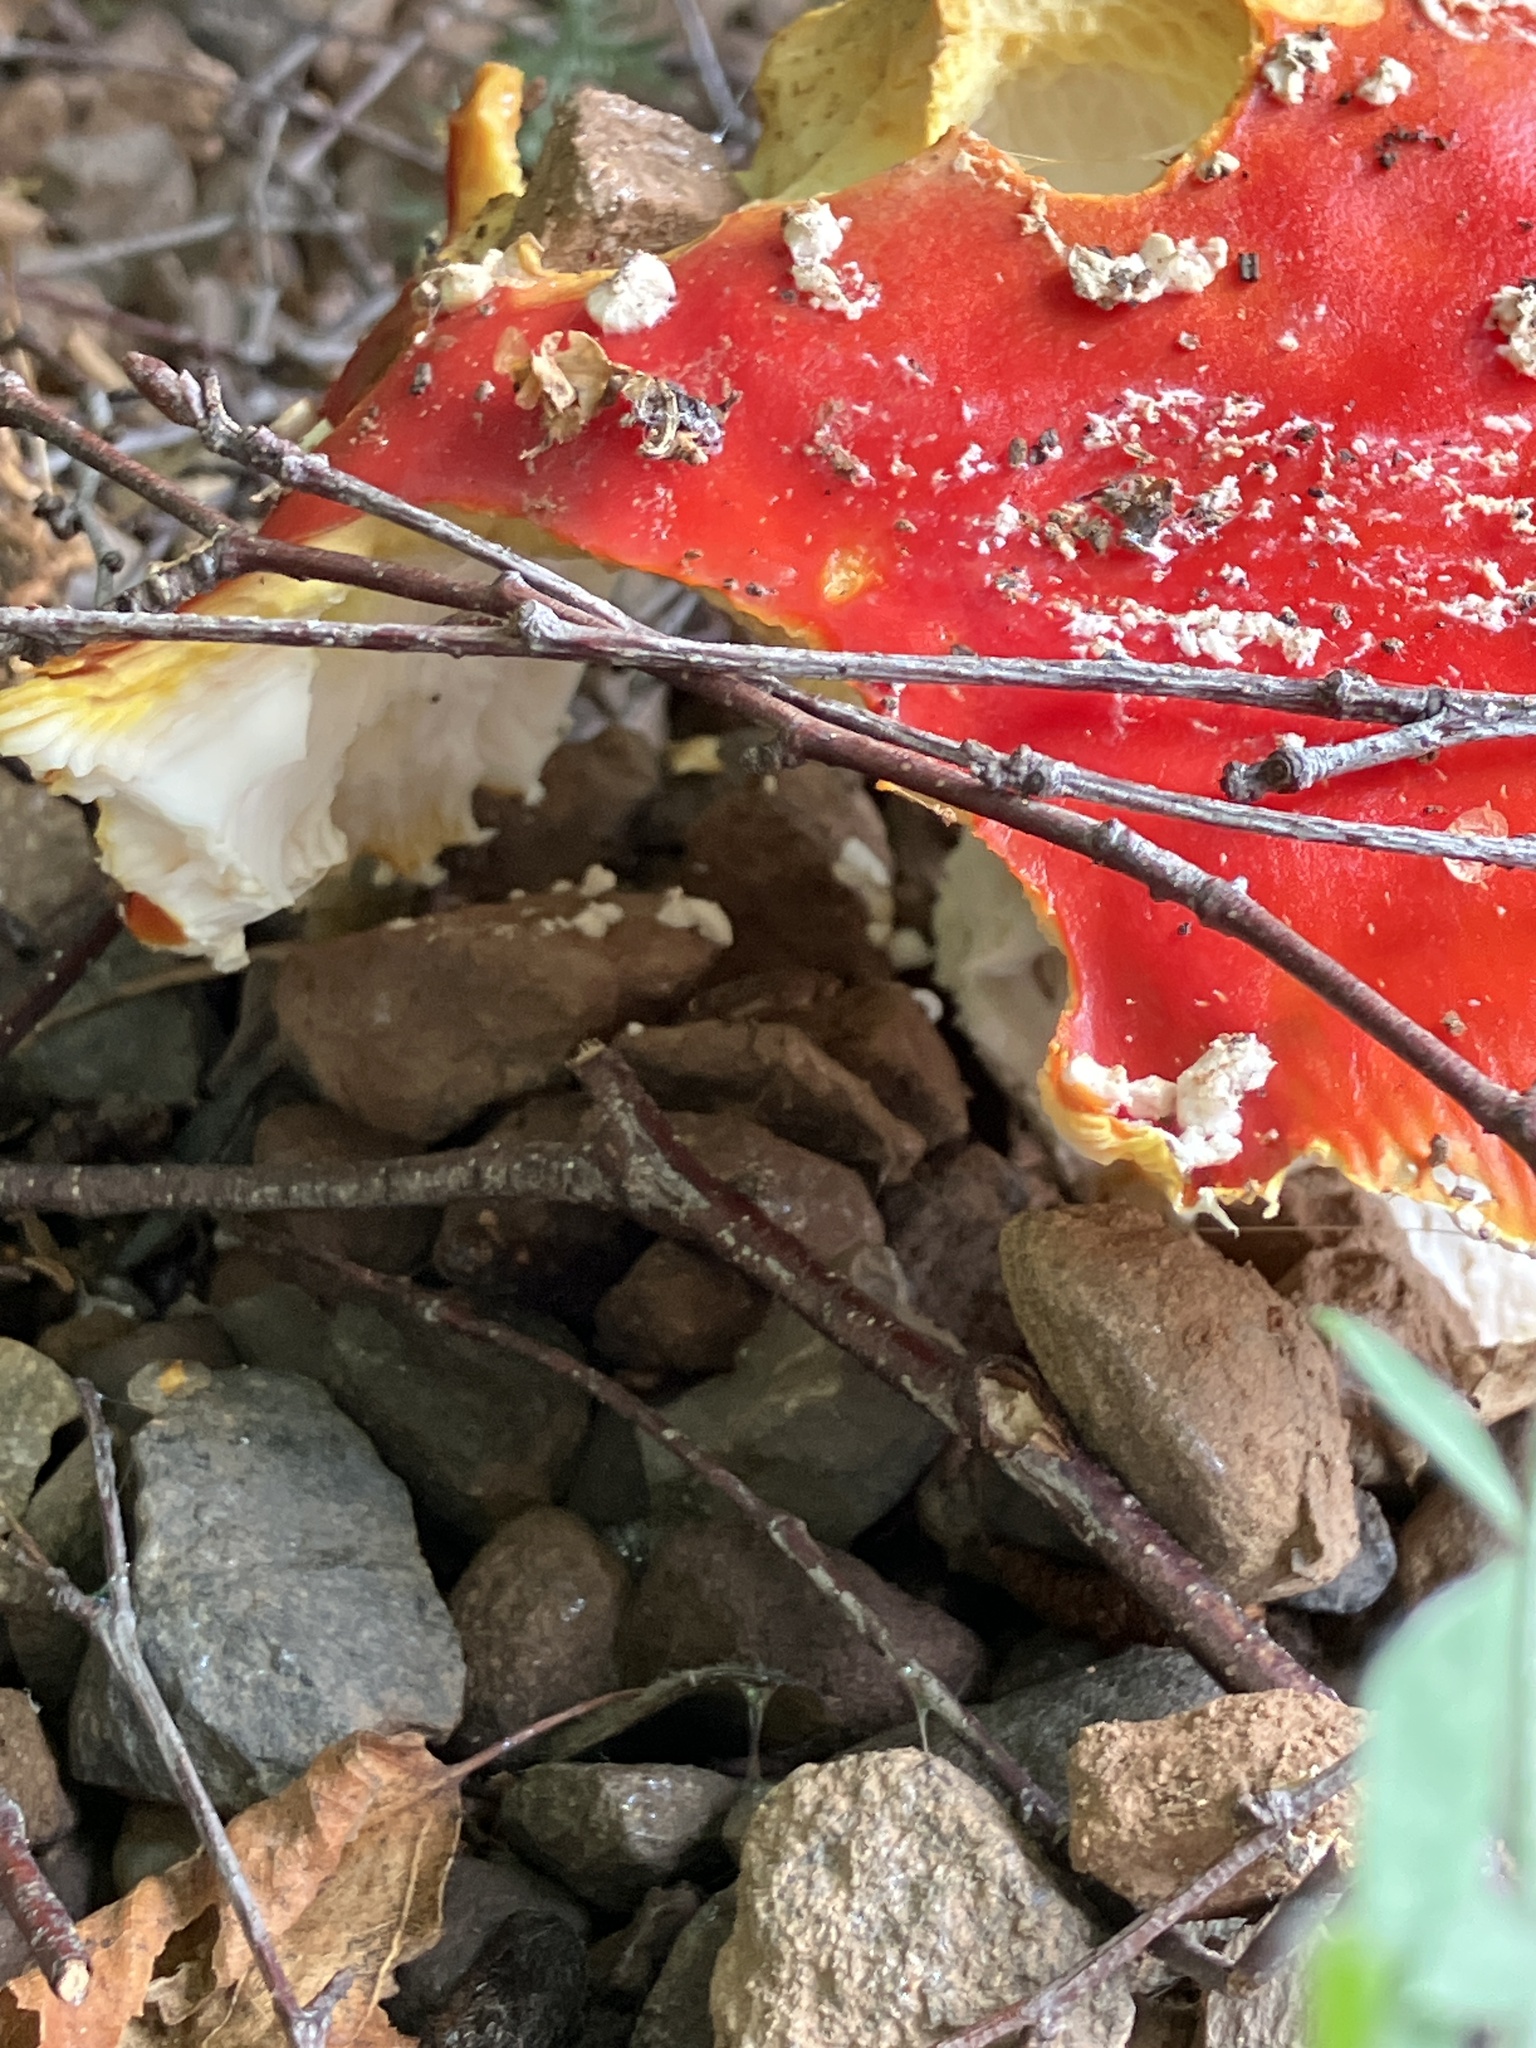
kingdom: Fungi
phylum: Basidiomycota
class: Agaricomycetes
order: Agaricales
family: Amanitaceae
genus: Amanita
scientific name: Amanita muscaria
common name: Fly agaric
